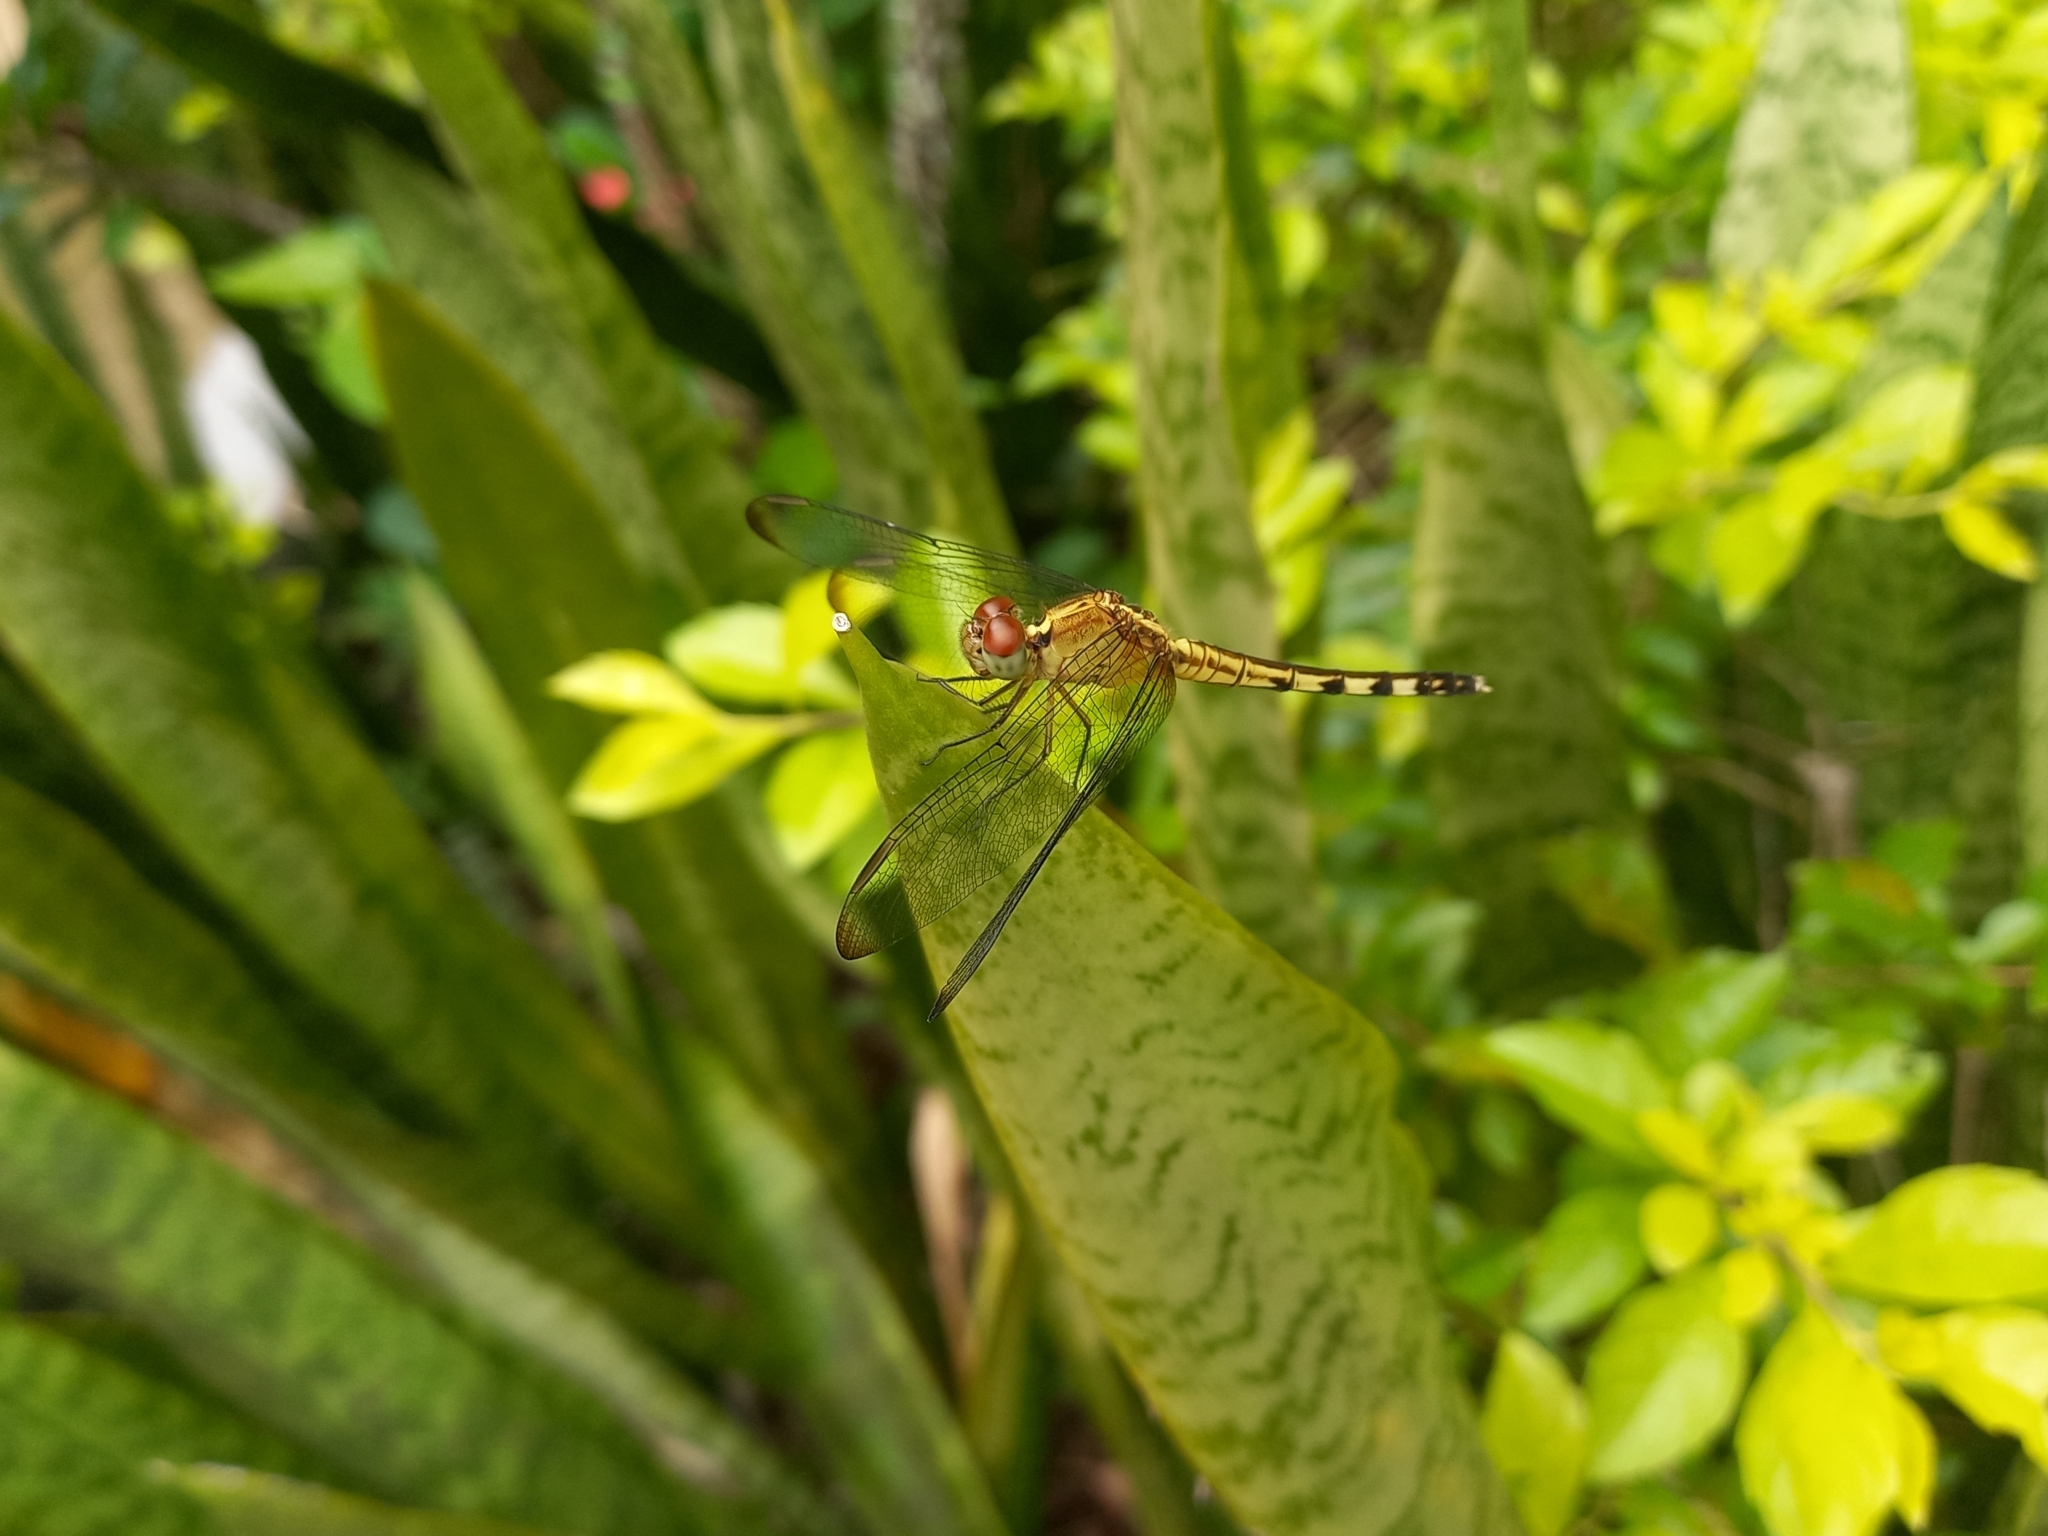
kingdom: Animalia
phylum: Arthropoda
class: Insecta
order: Odonata
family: Libellulidae
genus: Erythrodiplax
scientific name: Erythrodiplax umbrata
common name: Band-winged dragonlet
